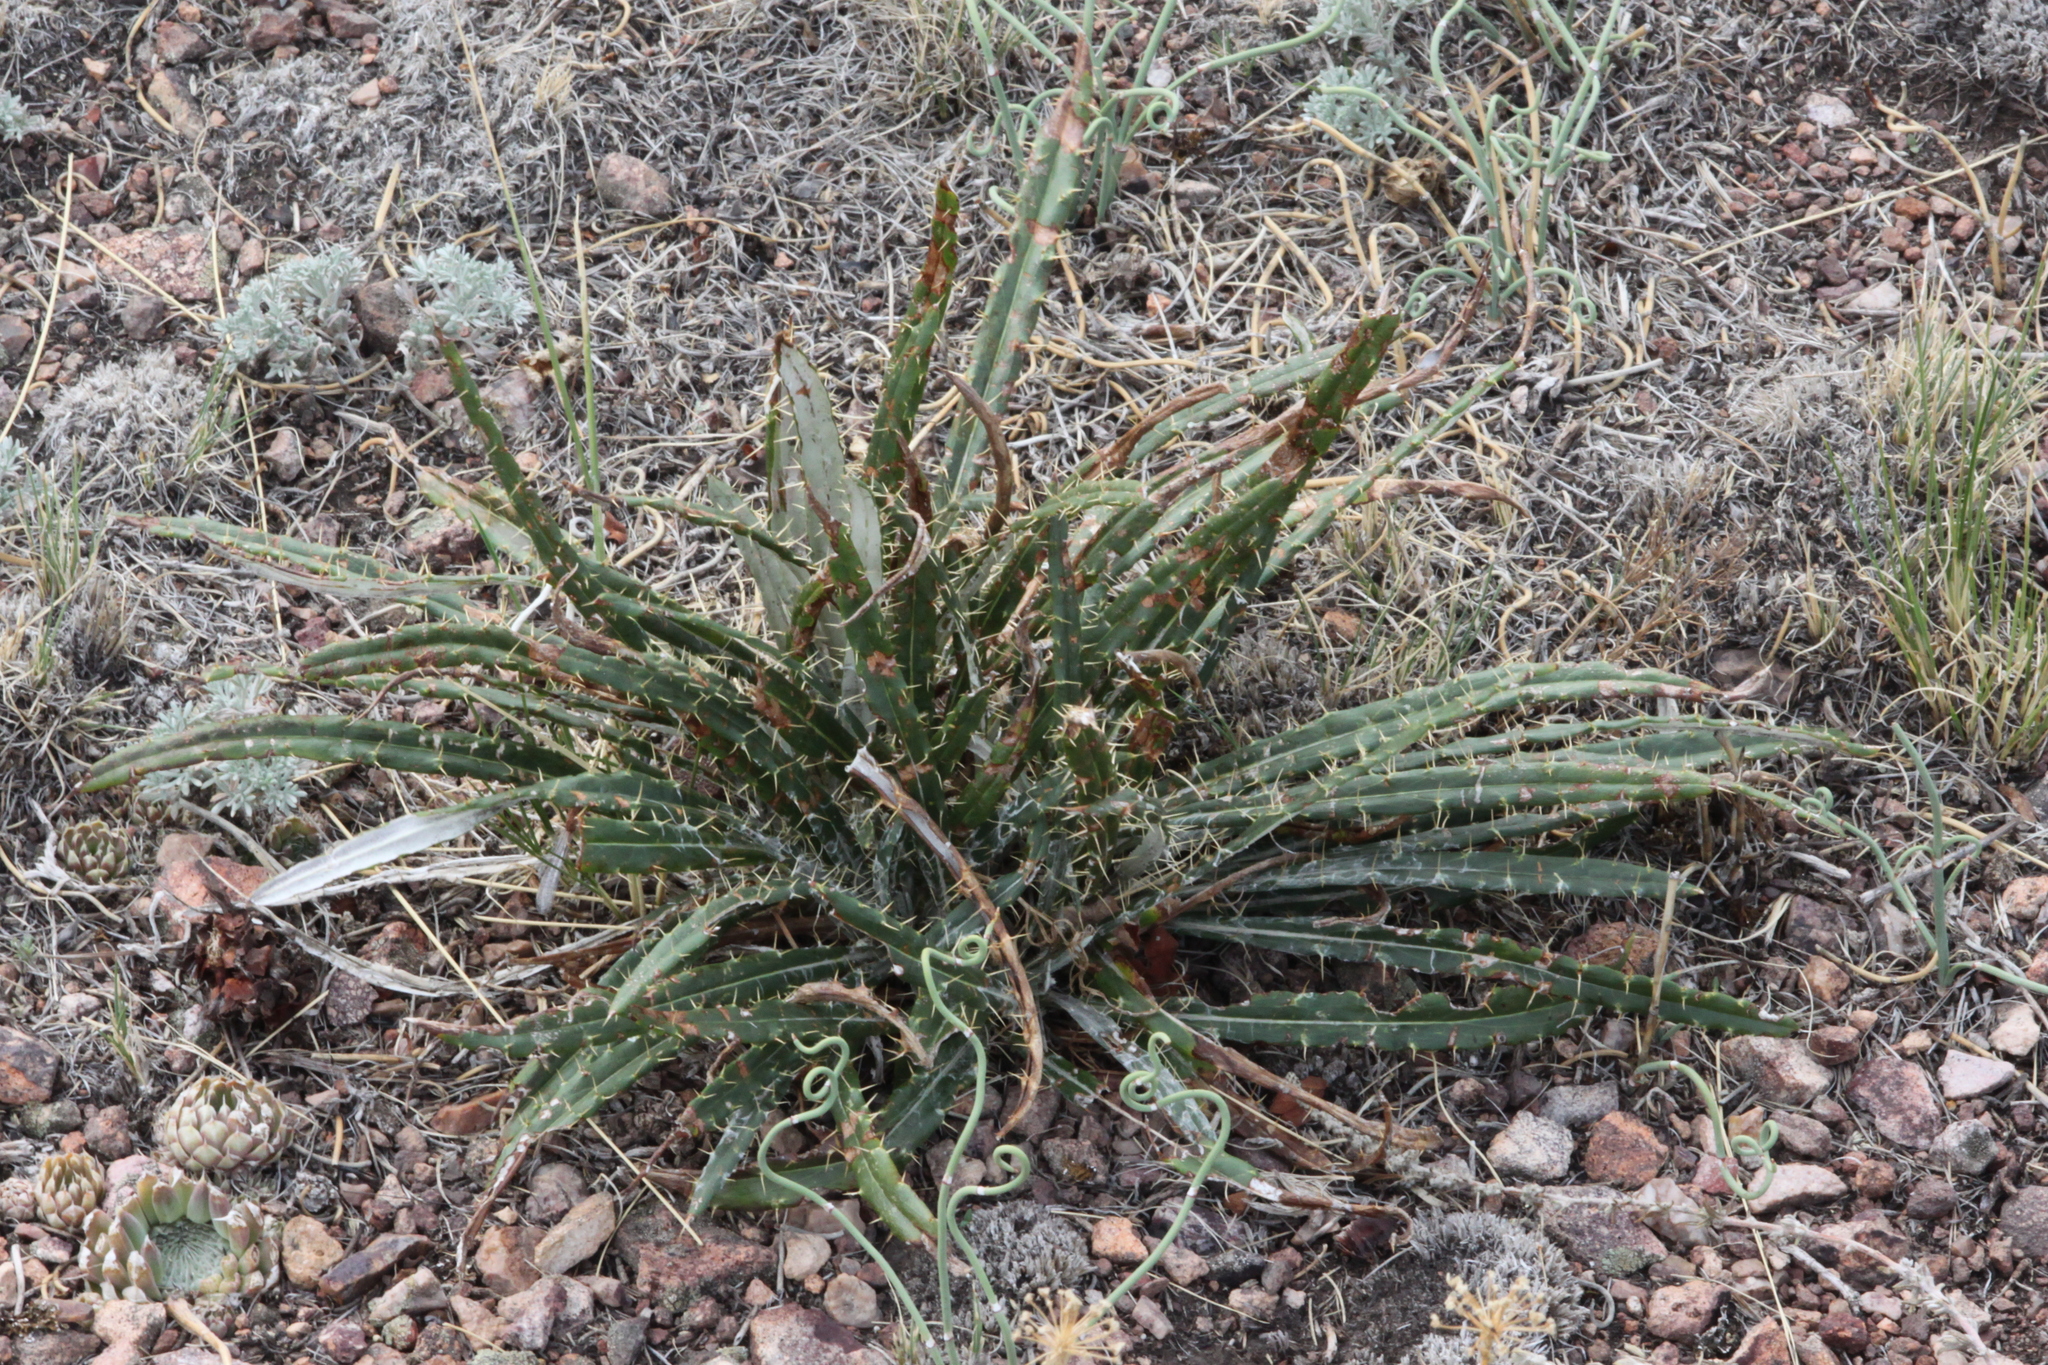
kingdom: Plantae
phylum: Tracheophyta
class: Magnoliopsida
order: Asterales
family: Asteraceae
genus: Ancathia
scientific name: Ancathia igniaria
